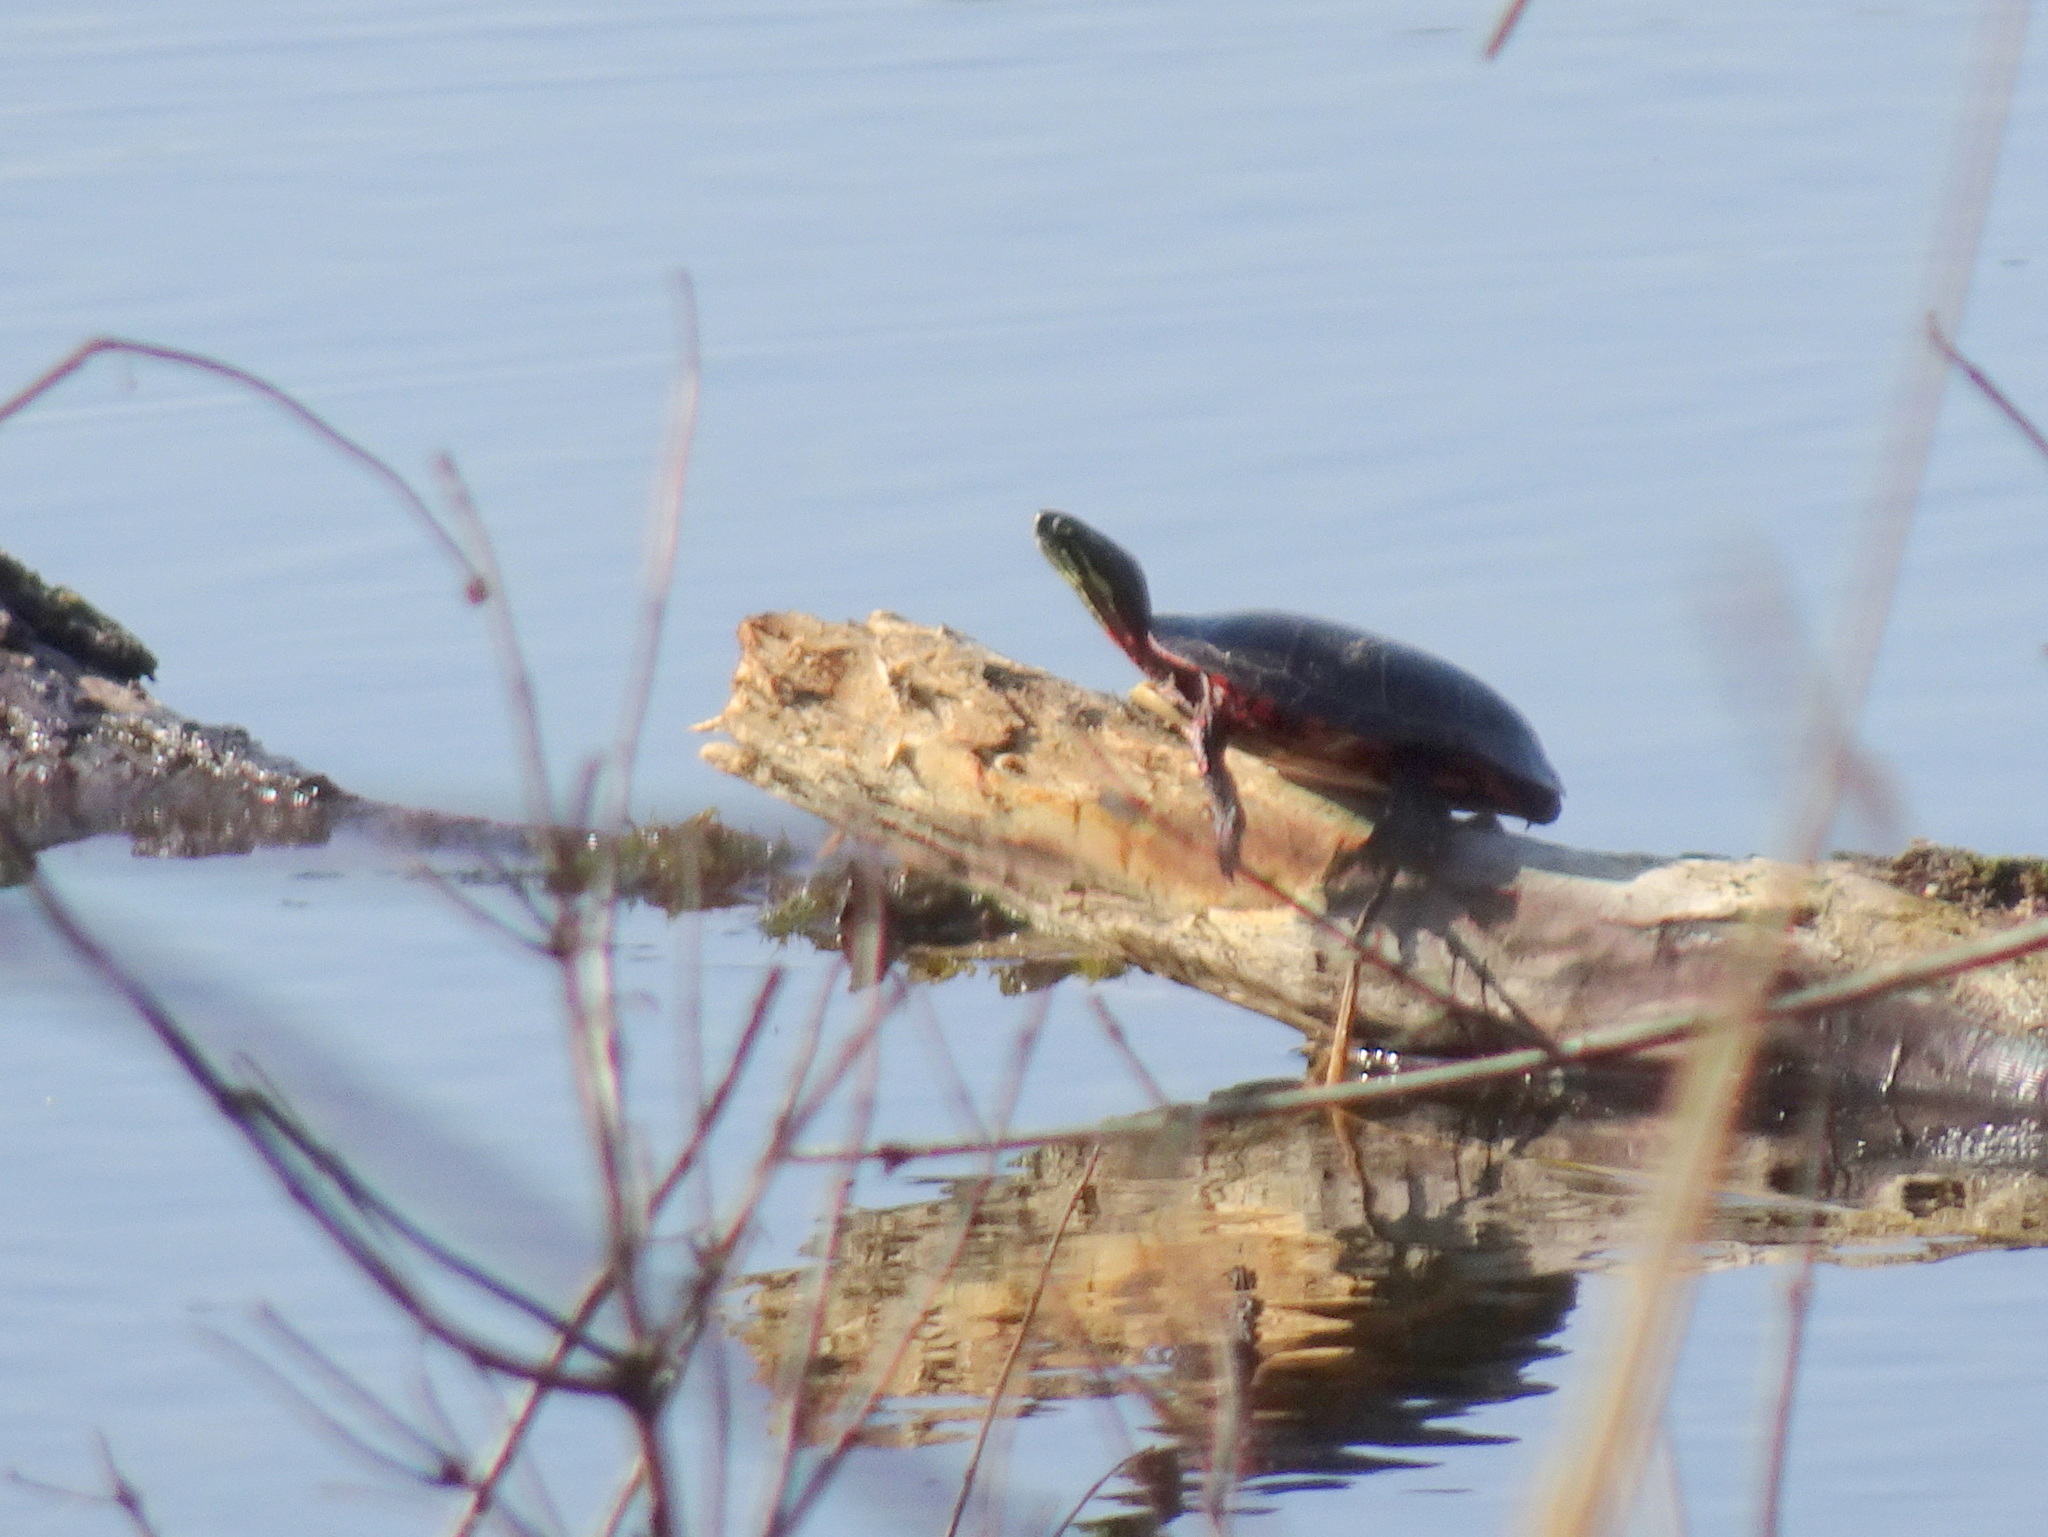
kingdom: Animalia
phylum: Chordata
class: Testudines
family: Emydidae
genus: Chrysemys
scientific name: Chrysemys picta
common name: Painted turtle
